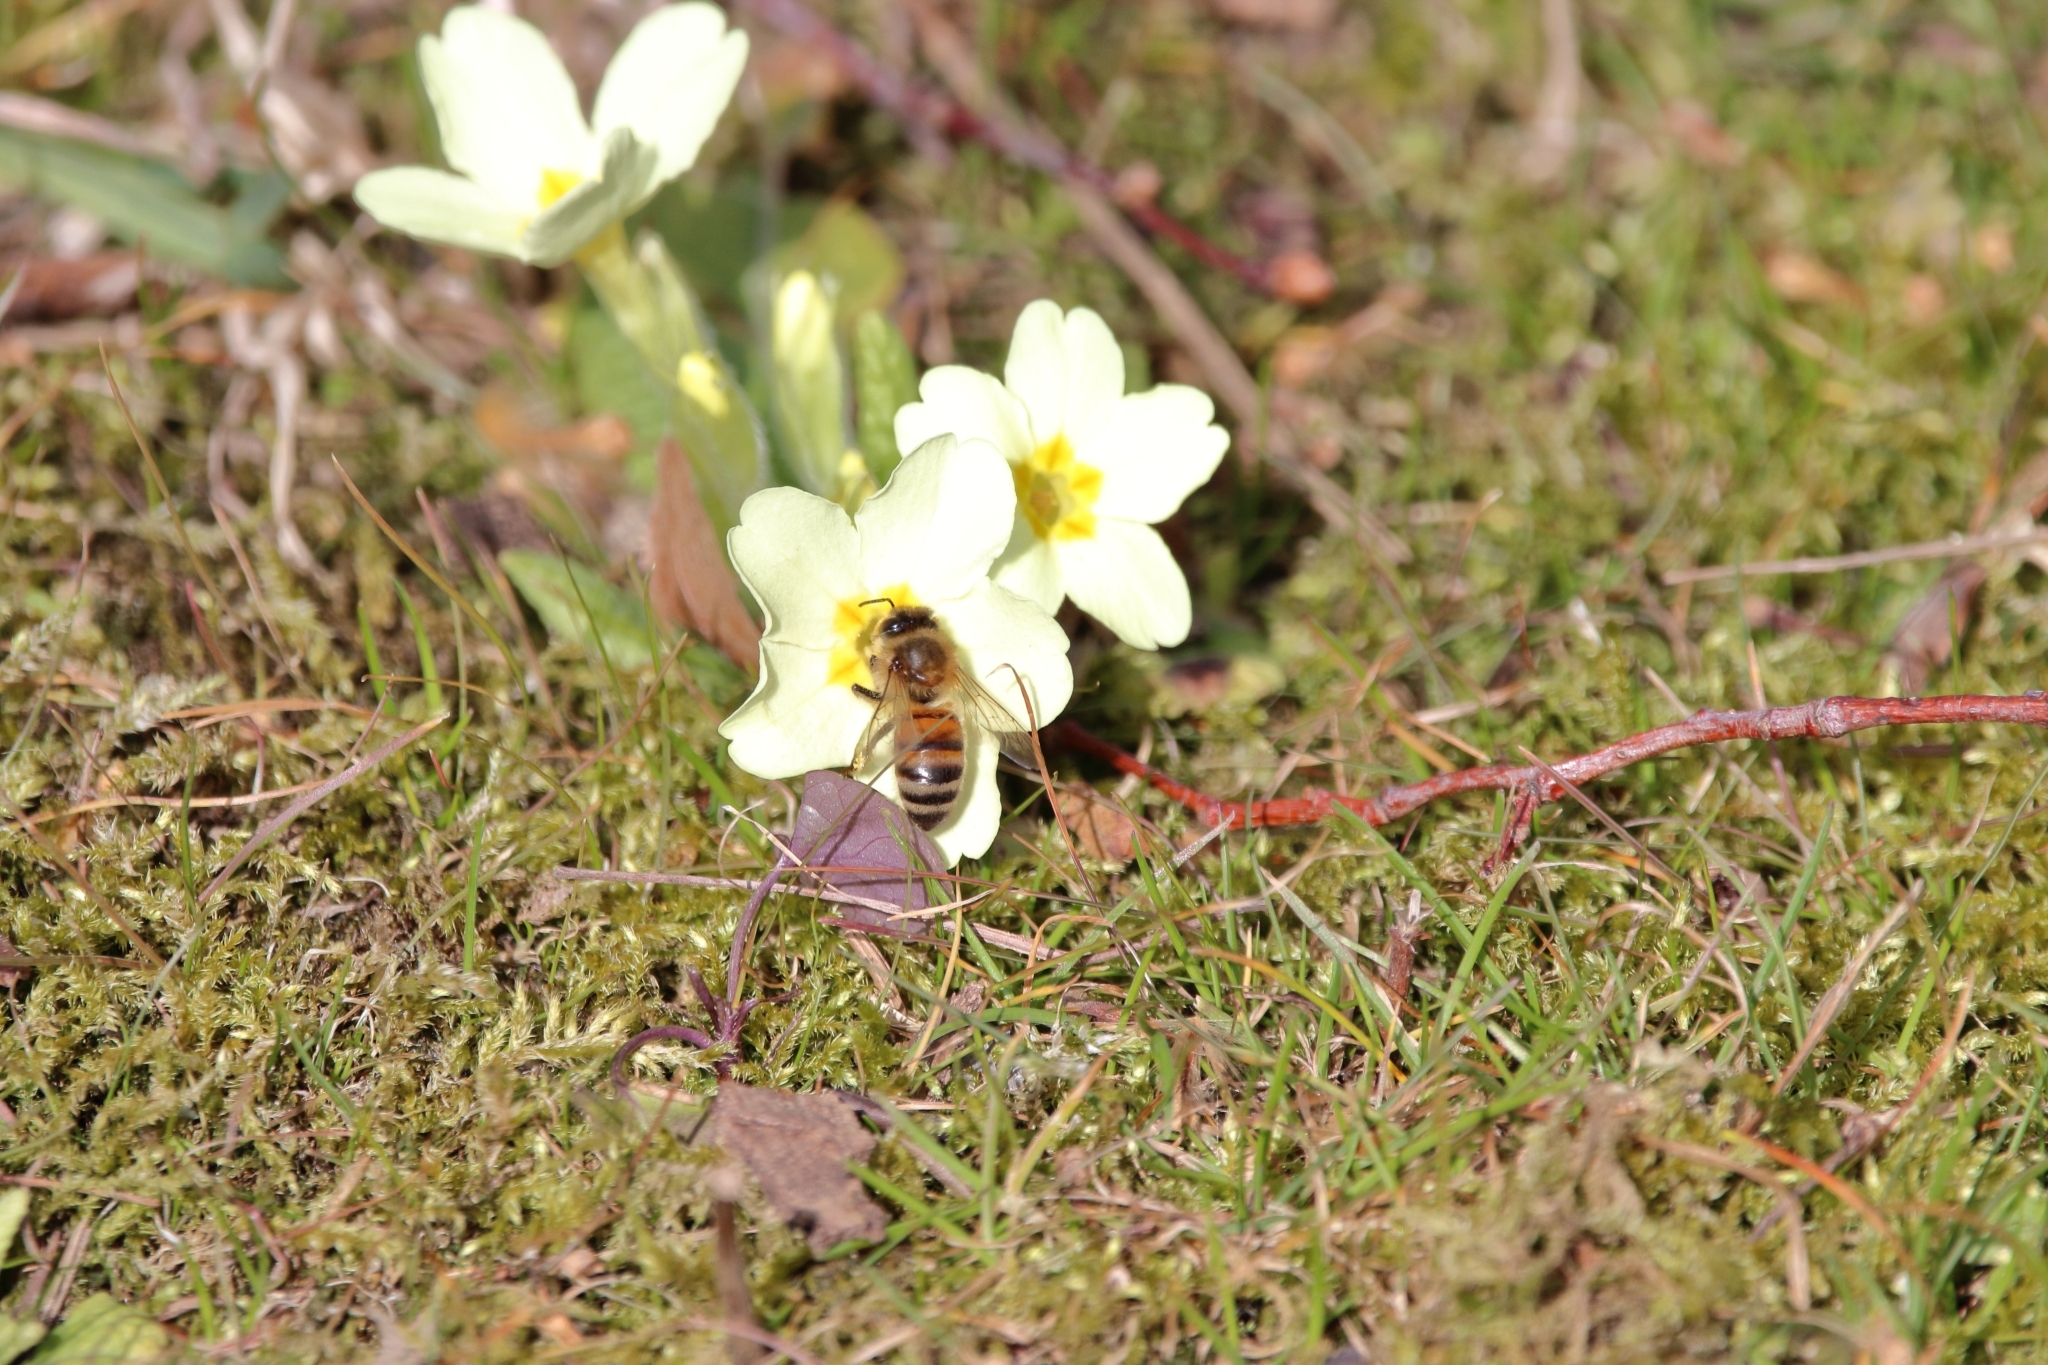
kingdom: Animalia
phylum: Arthropoda
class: Insecta
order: Hymenoptera
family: Apidae
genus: Apis
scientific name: Apis mellifera
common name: Honey bee
